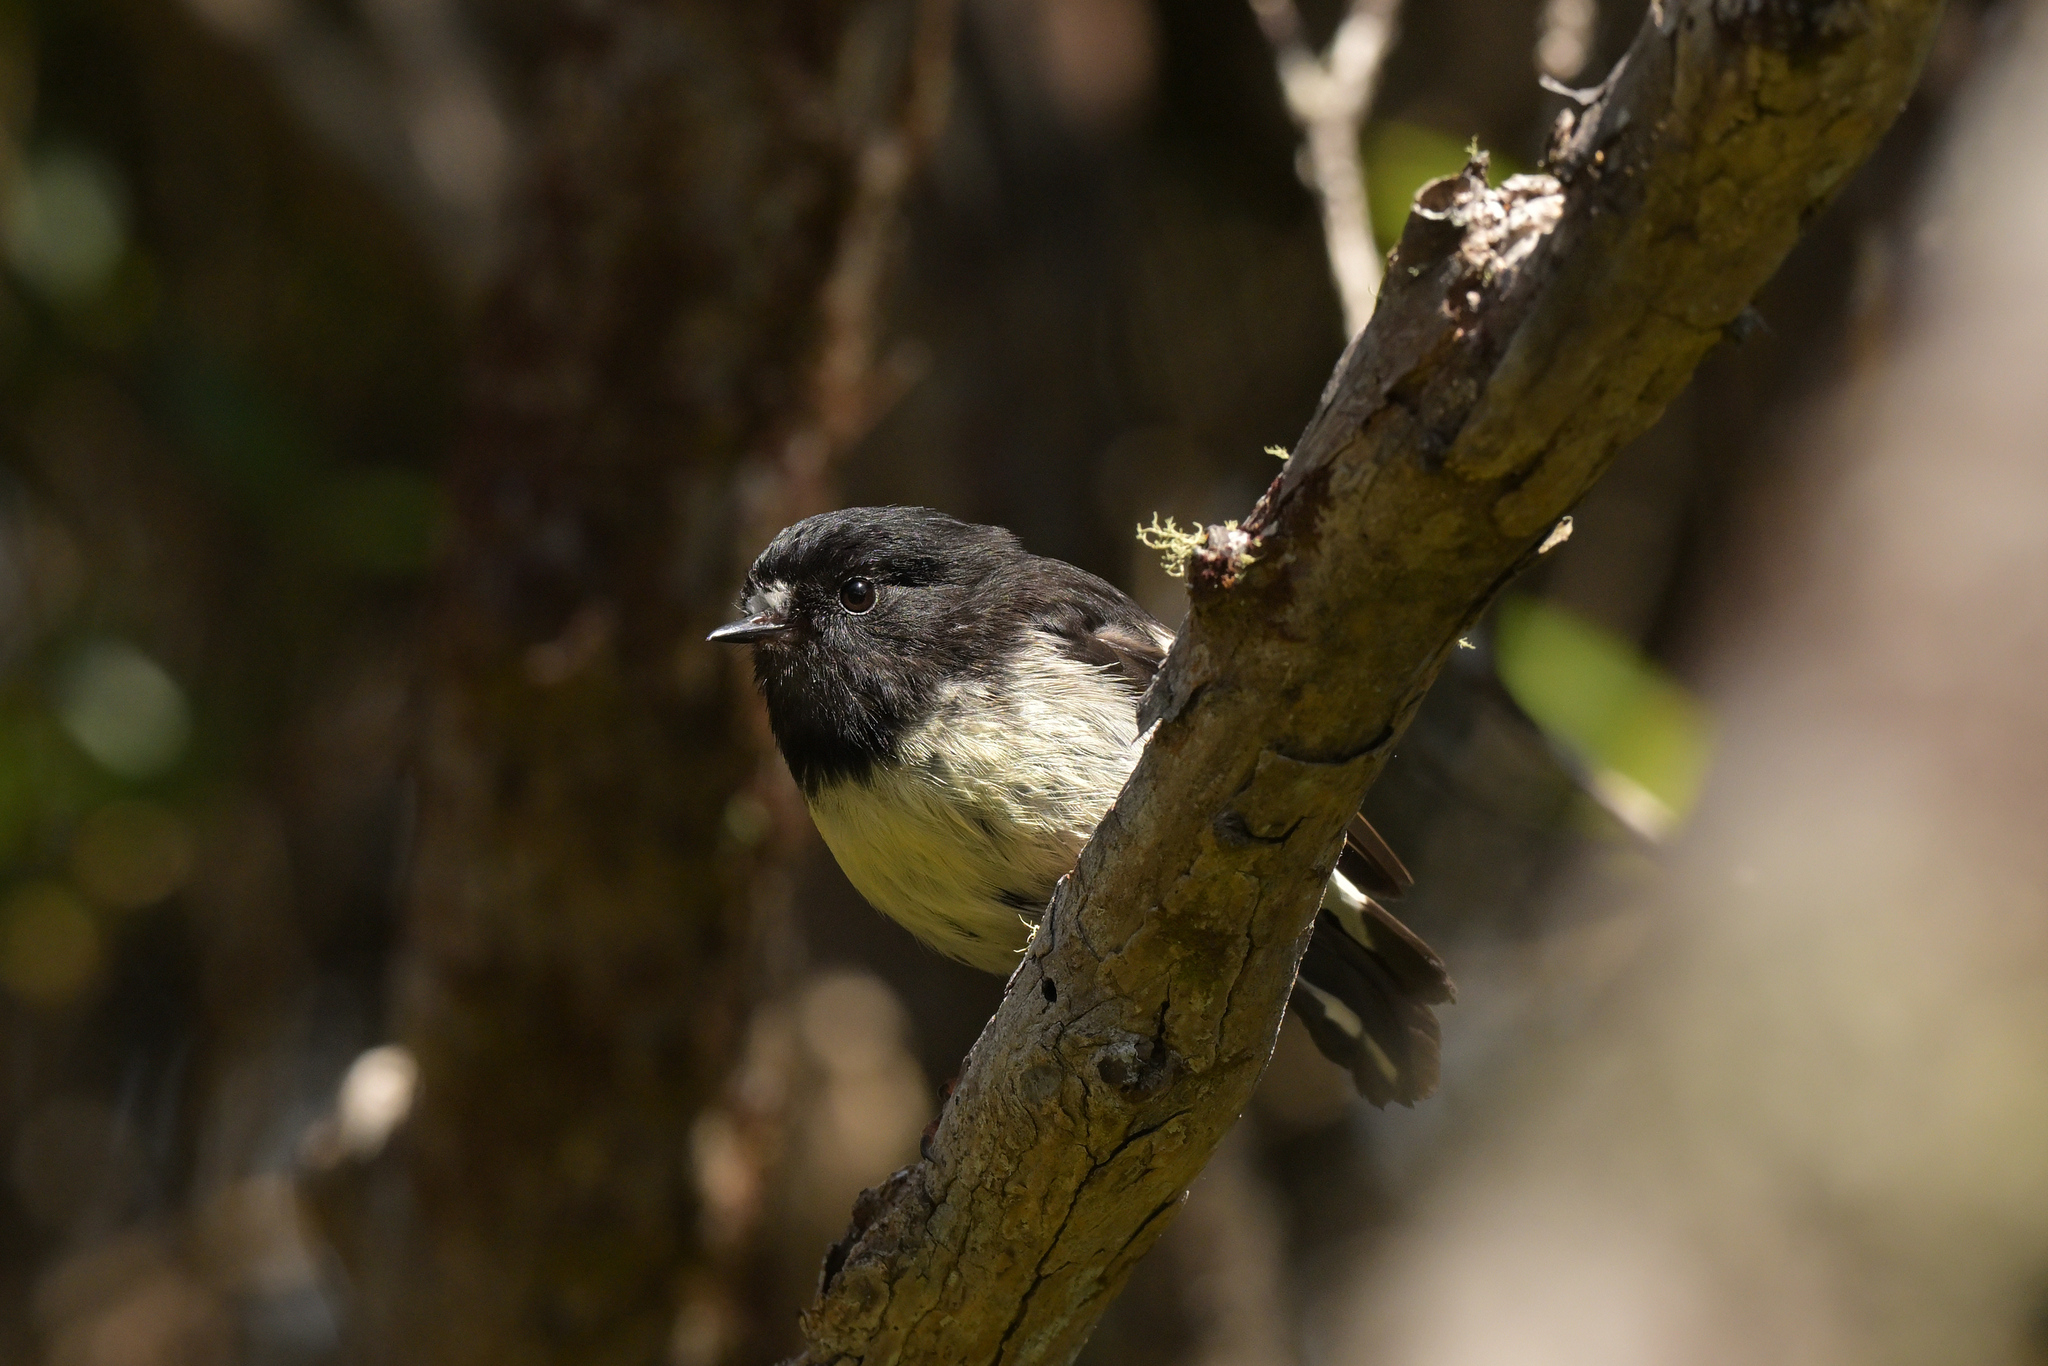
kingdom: Animalia
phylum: Chordata
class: Aves
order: Passeriformes
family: Petroicidae
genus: Petroica
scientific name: Petroica macrocephala
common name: Tomtit
